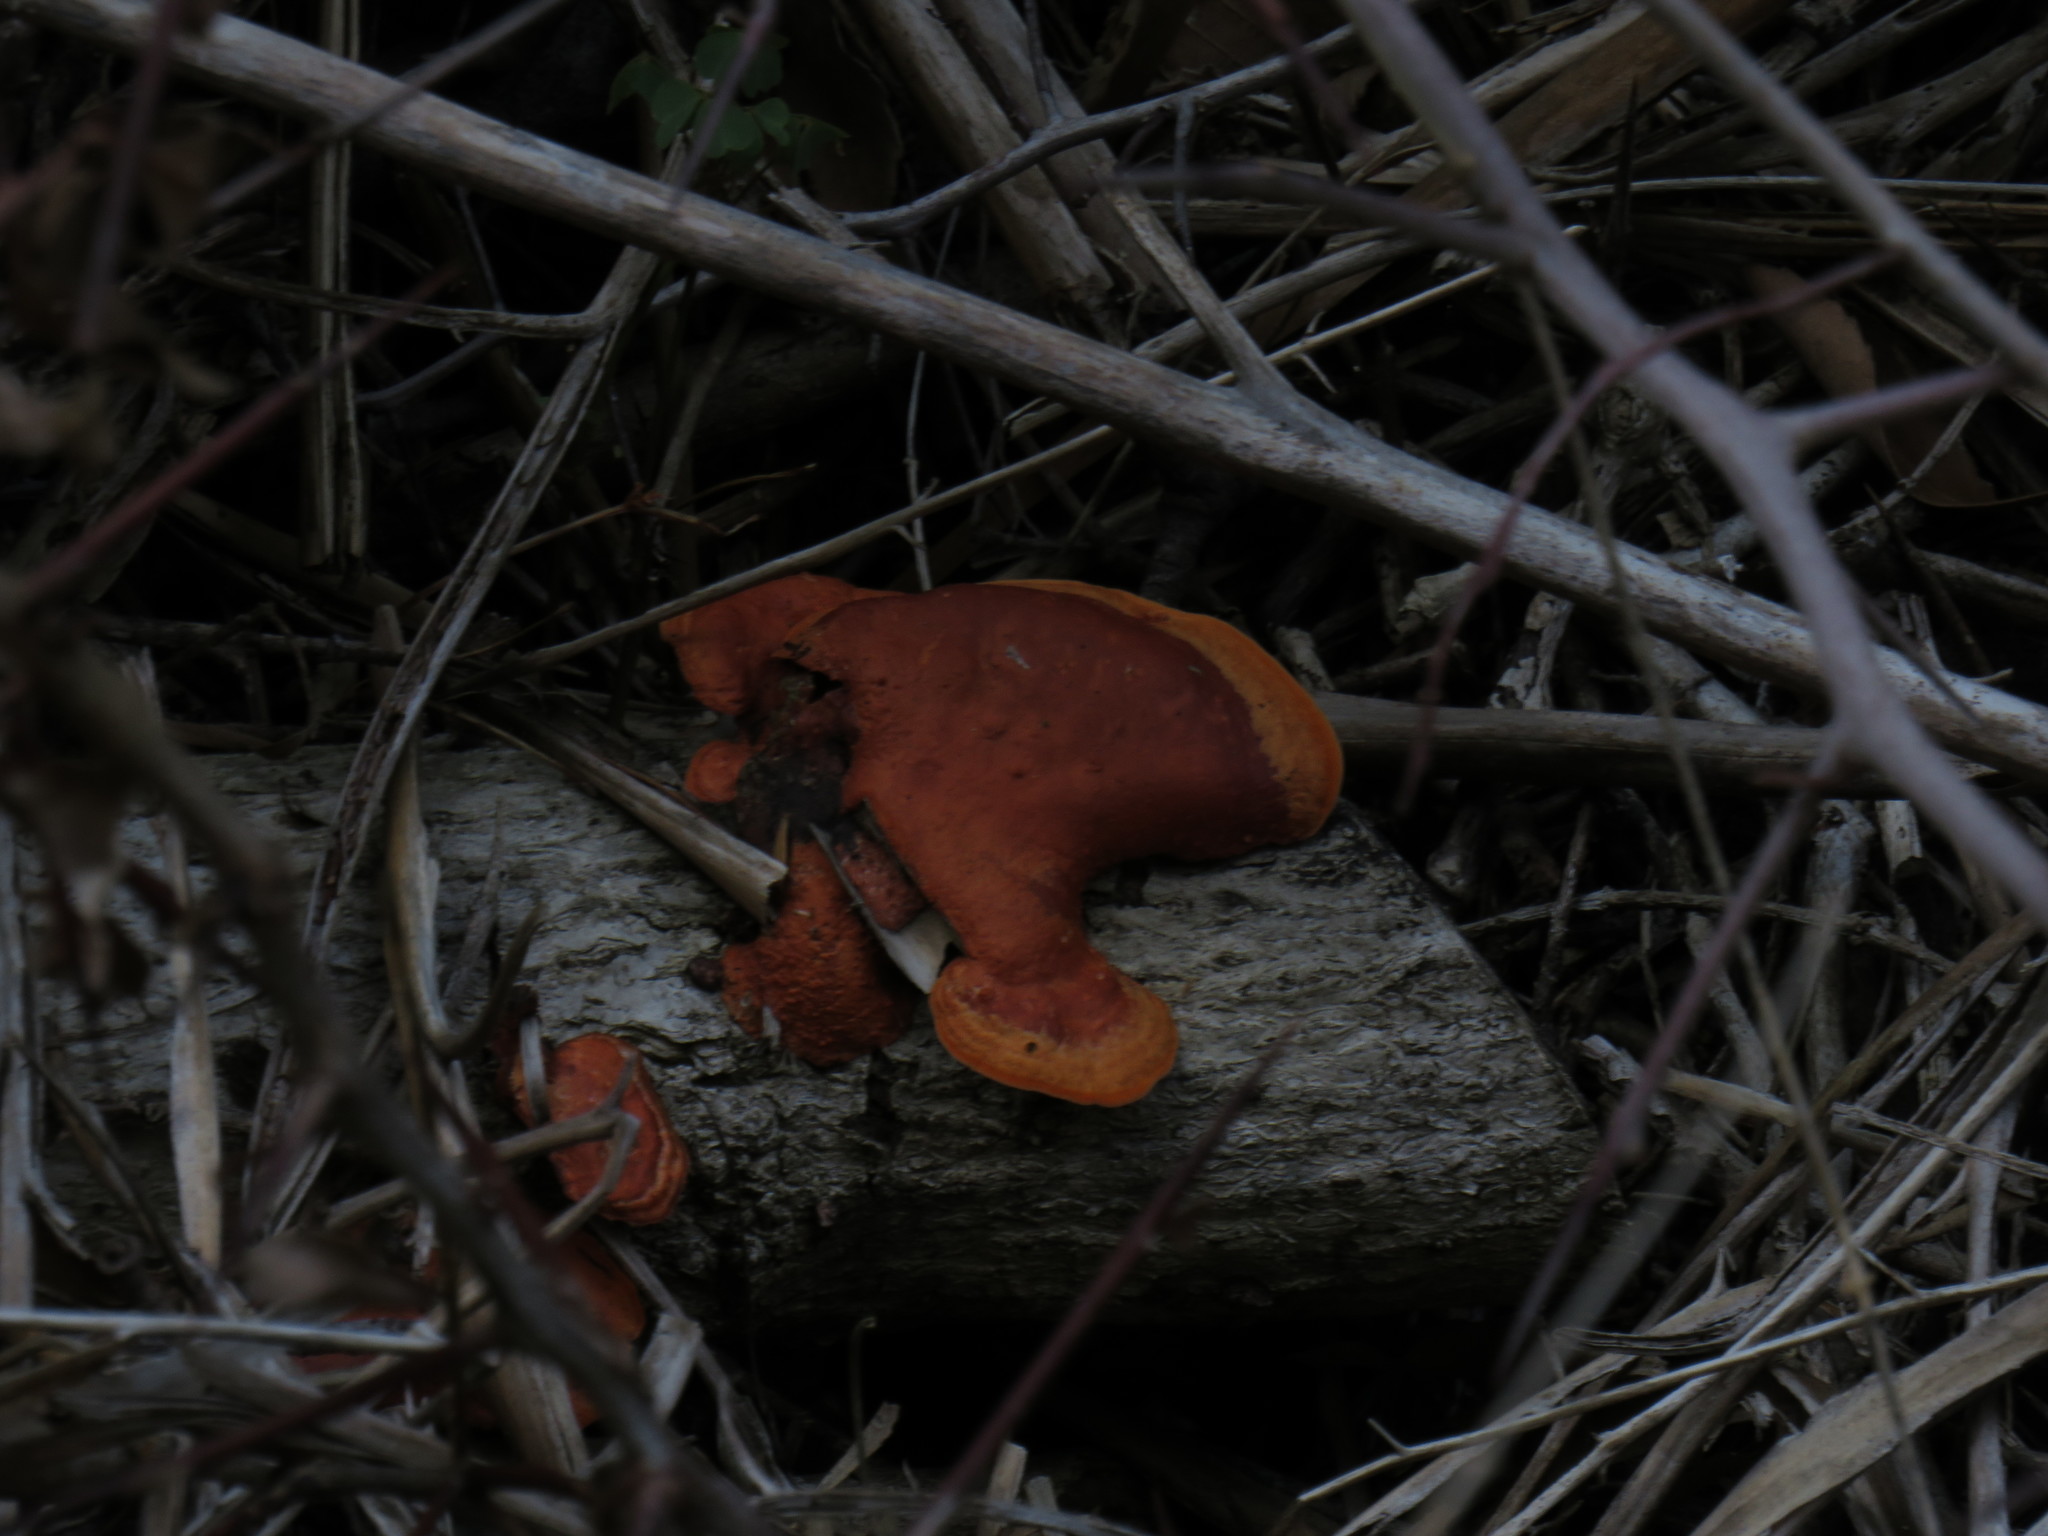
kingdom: Fungi
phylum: Basidiomycota
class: Agaricomycetes
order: Polyporales
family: Polyporaceae
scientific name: Polyporaceae
